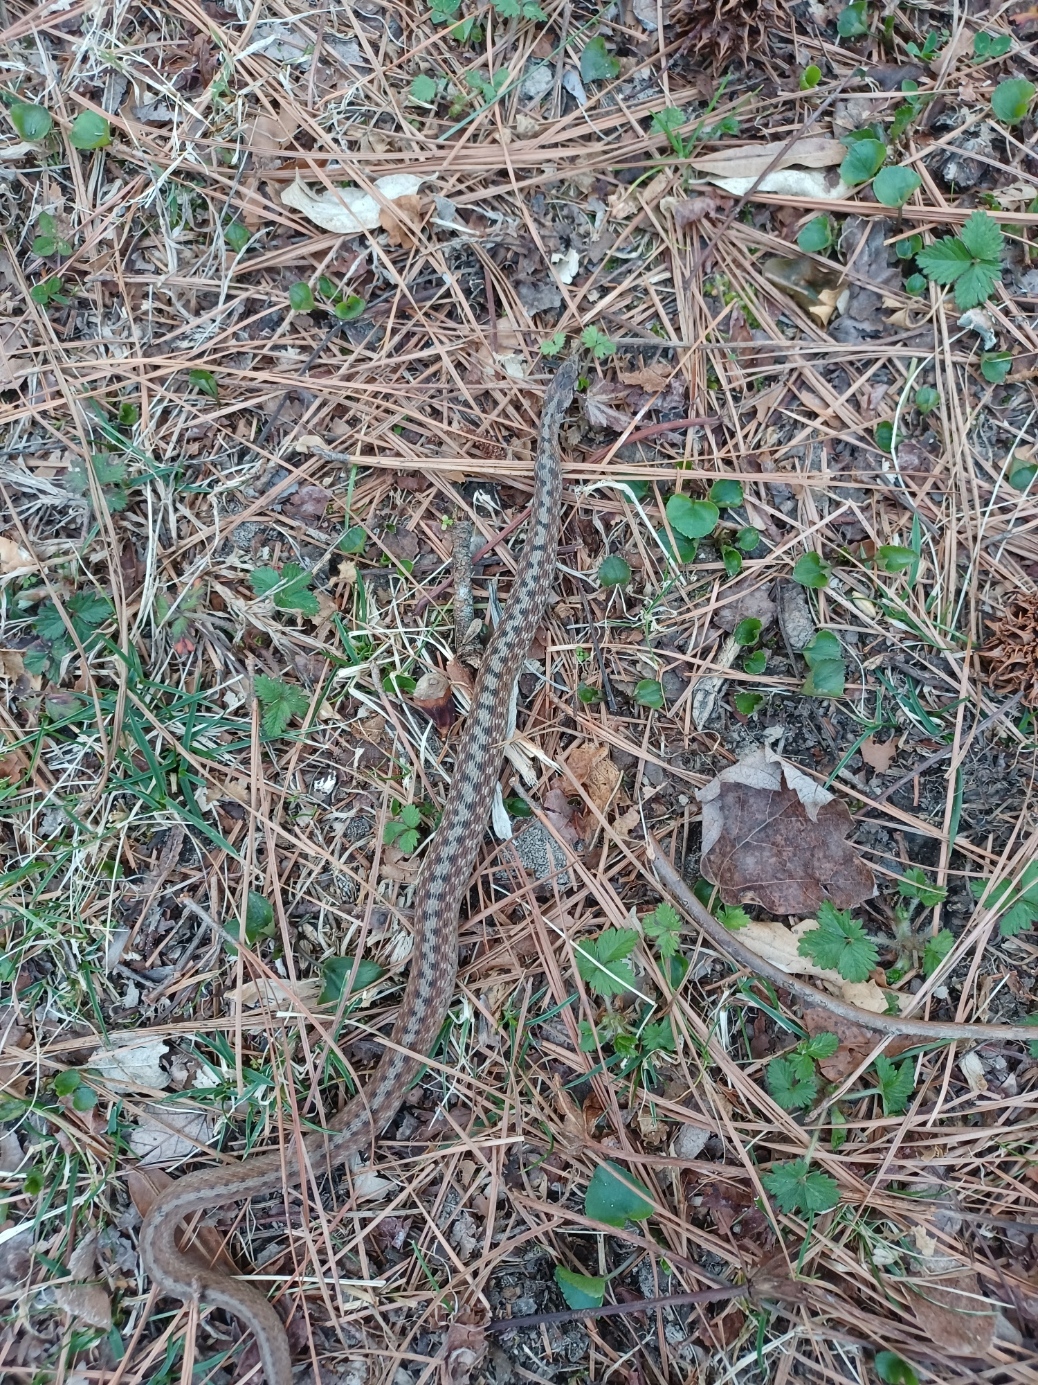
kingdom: Animalia
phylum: Chordata
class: Squamata
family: Colubridae
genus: Storeria
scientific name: Storeria dekayi
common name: (dekay’s) brown snake
